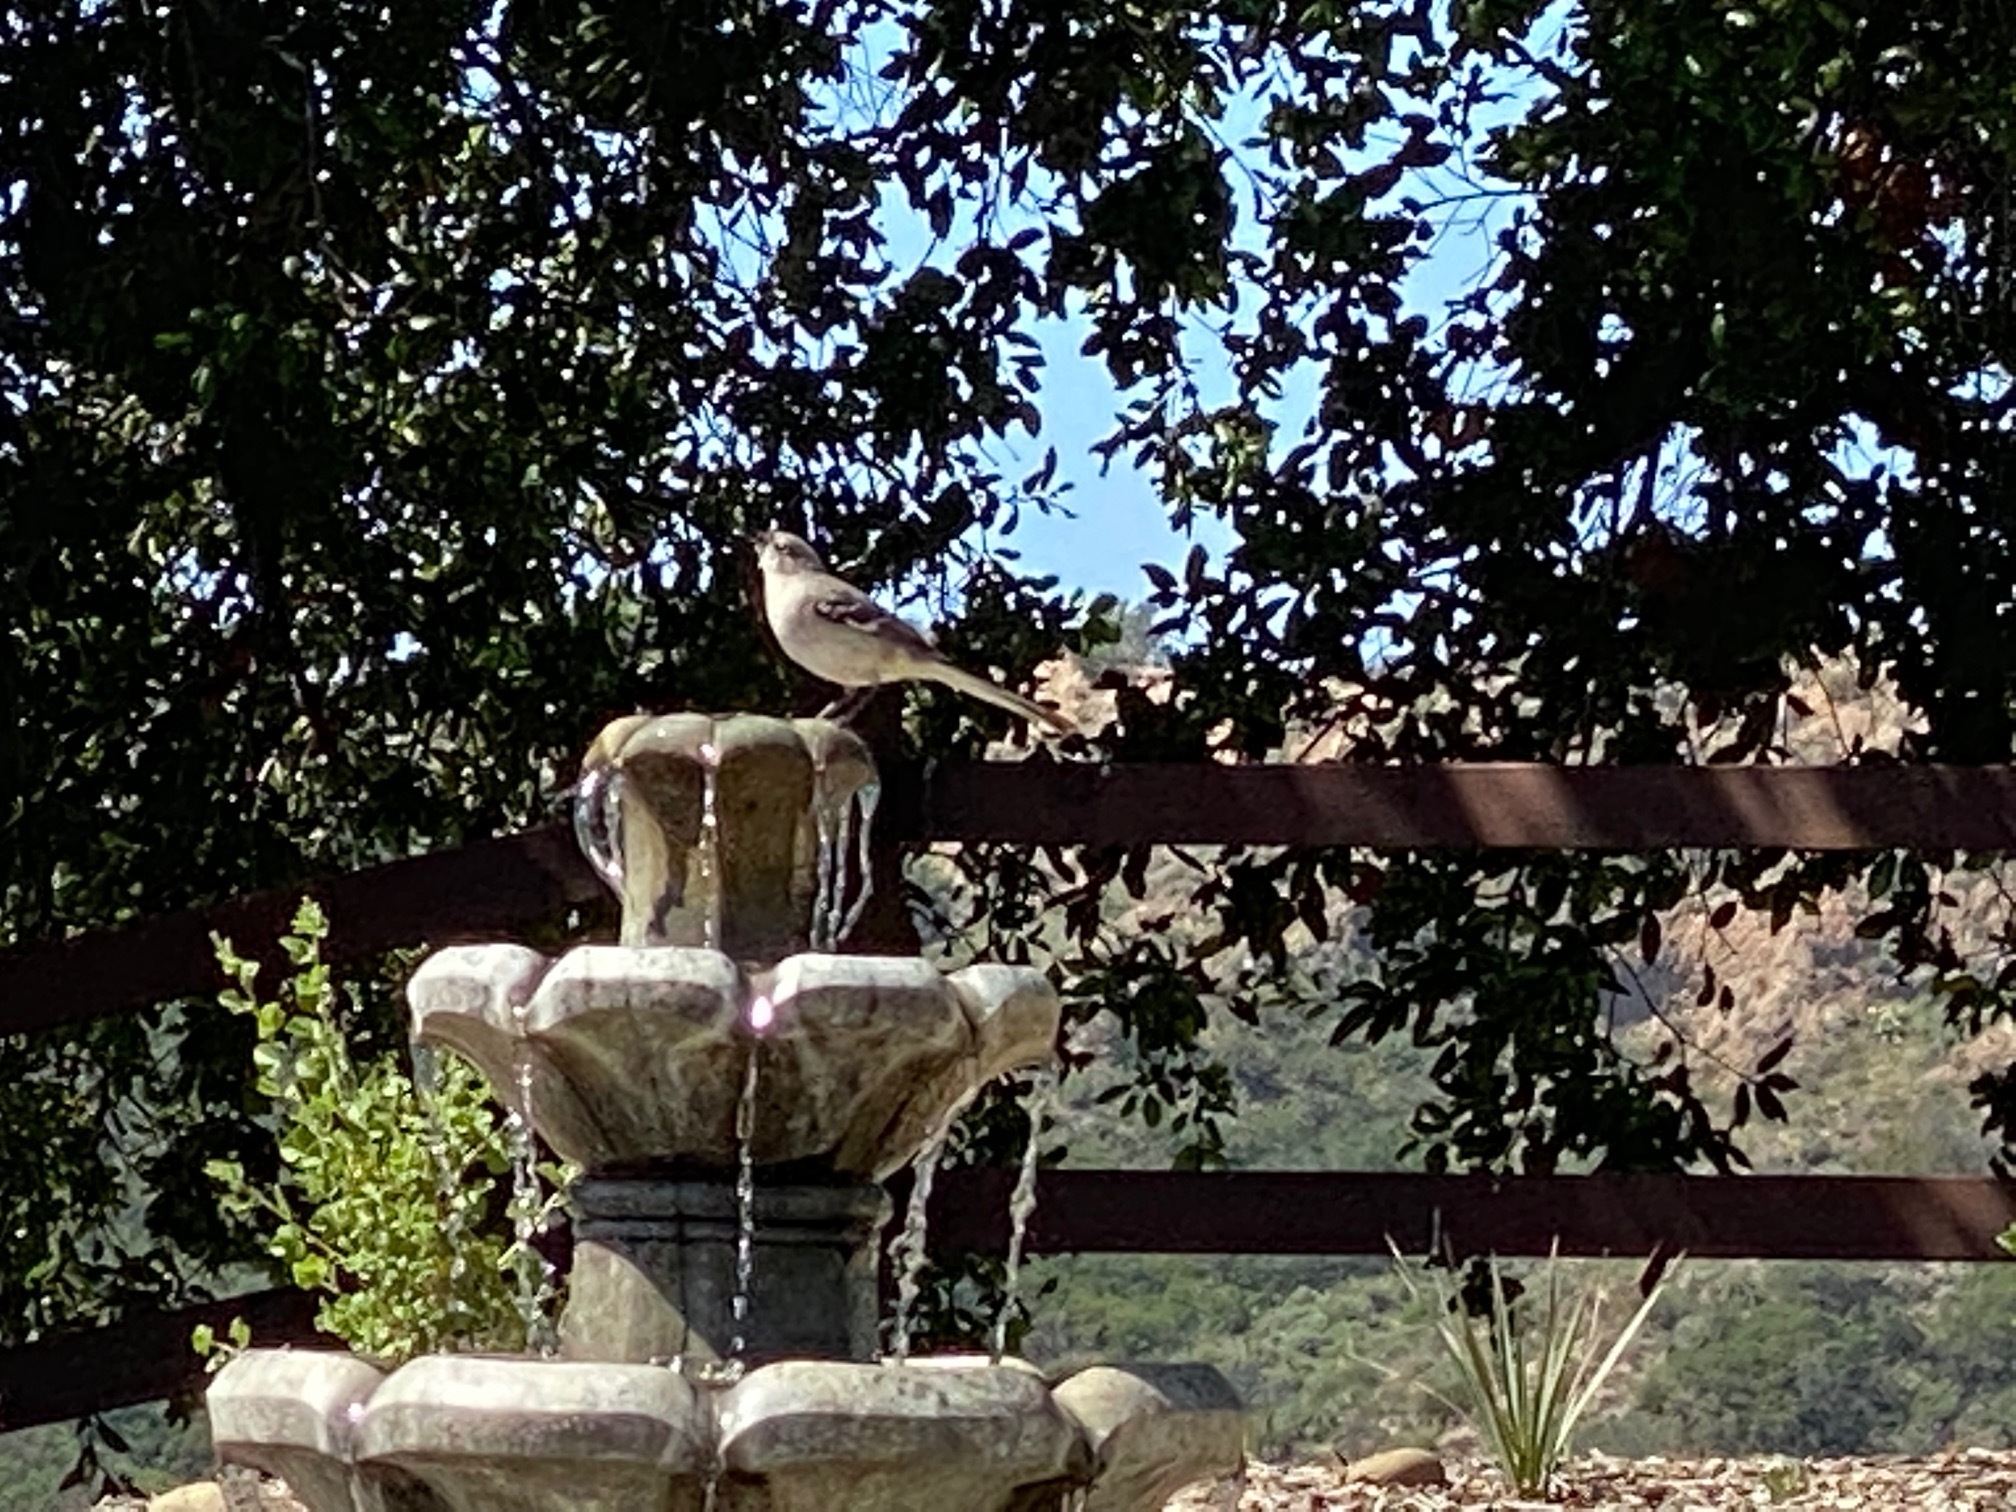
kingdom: Animalia
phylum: Chordata
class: Aves
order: Passeriformes
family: Mimidae
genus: Mimus
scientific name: Mimus polyglottos
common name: Northern mockingbird
